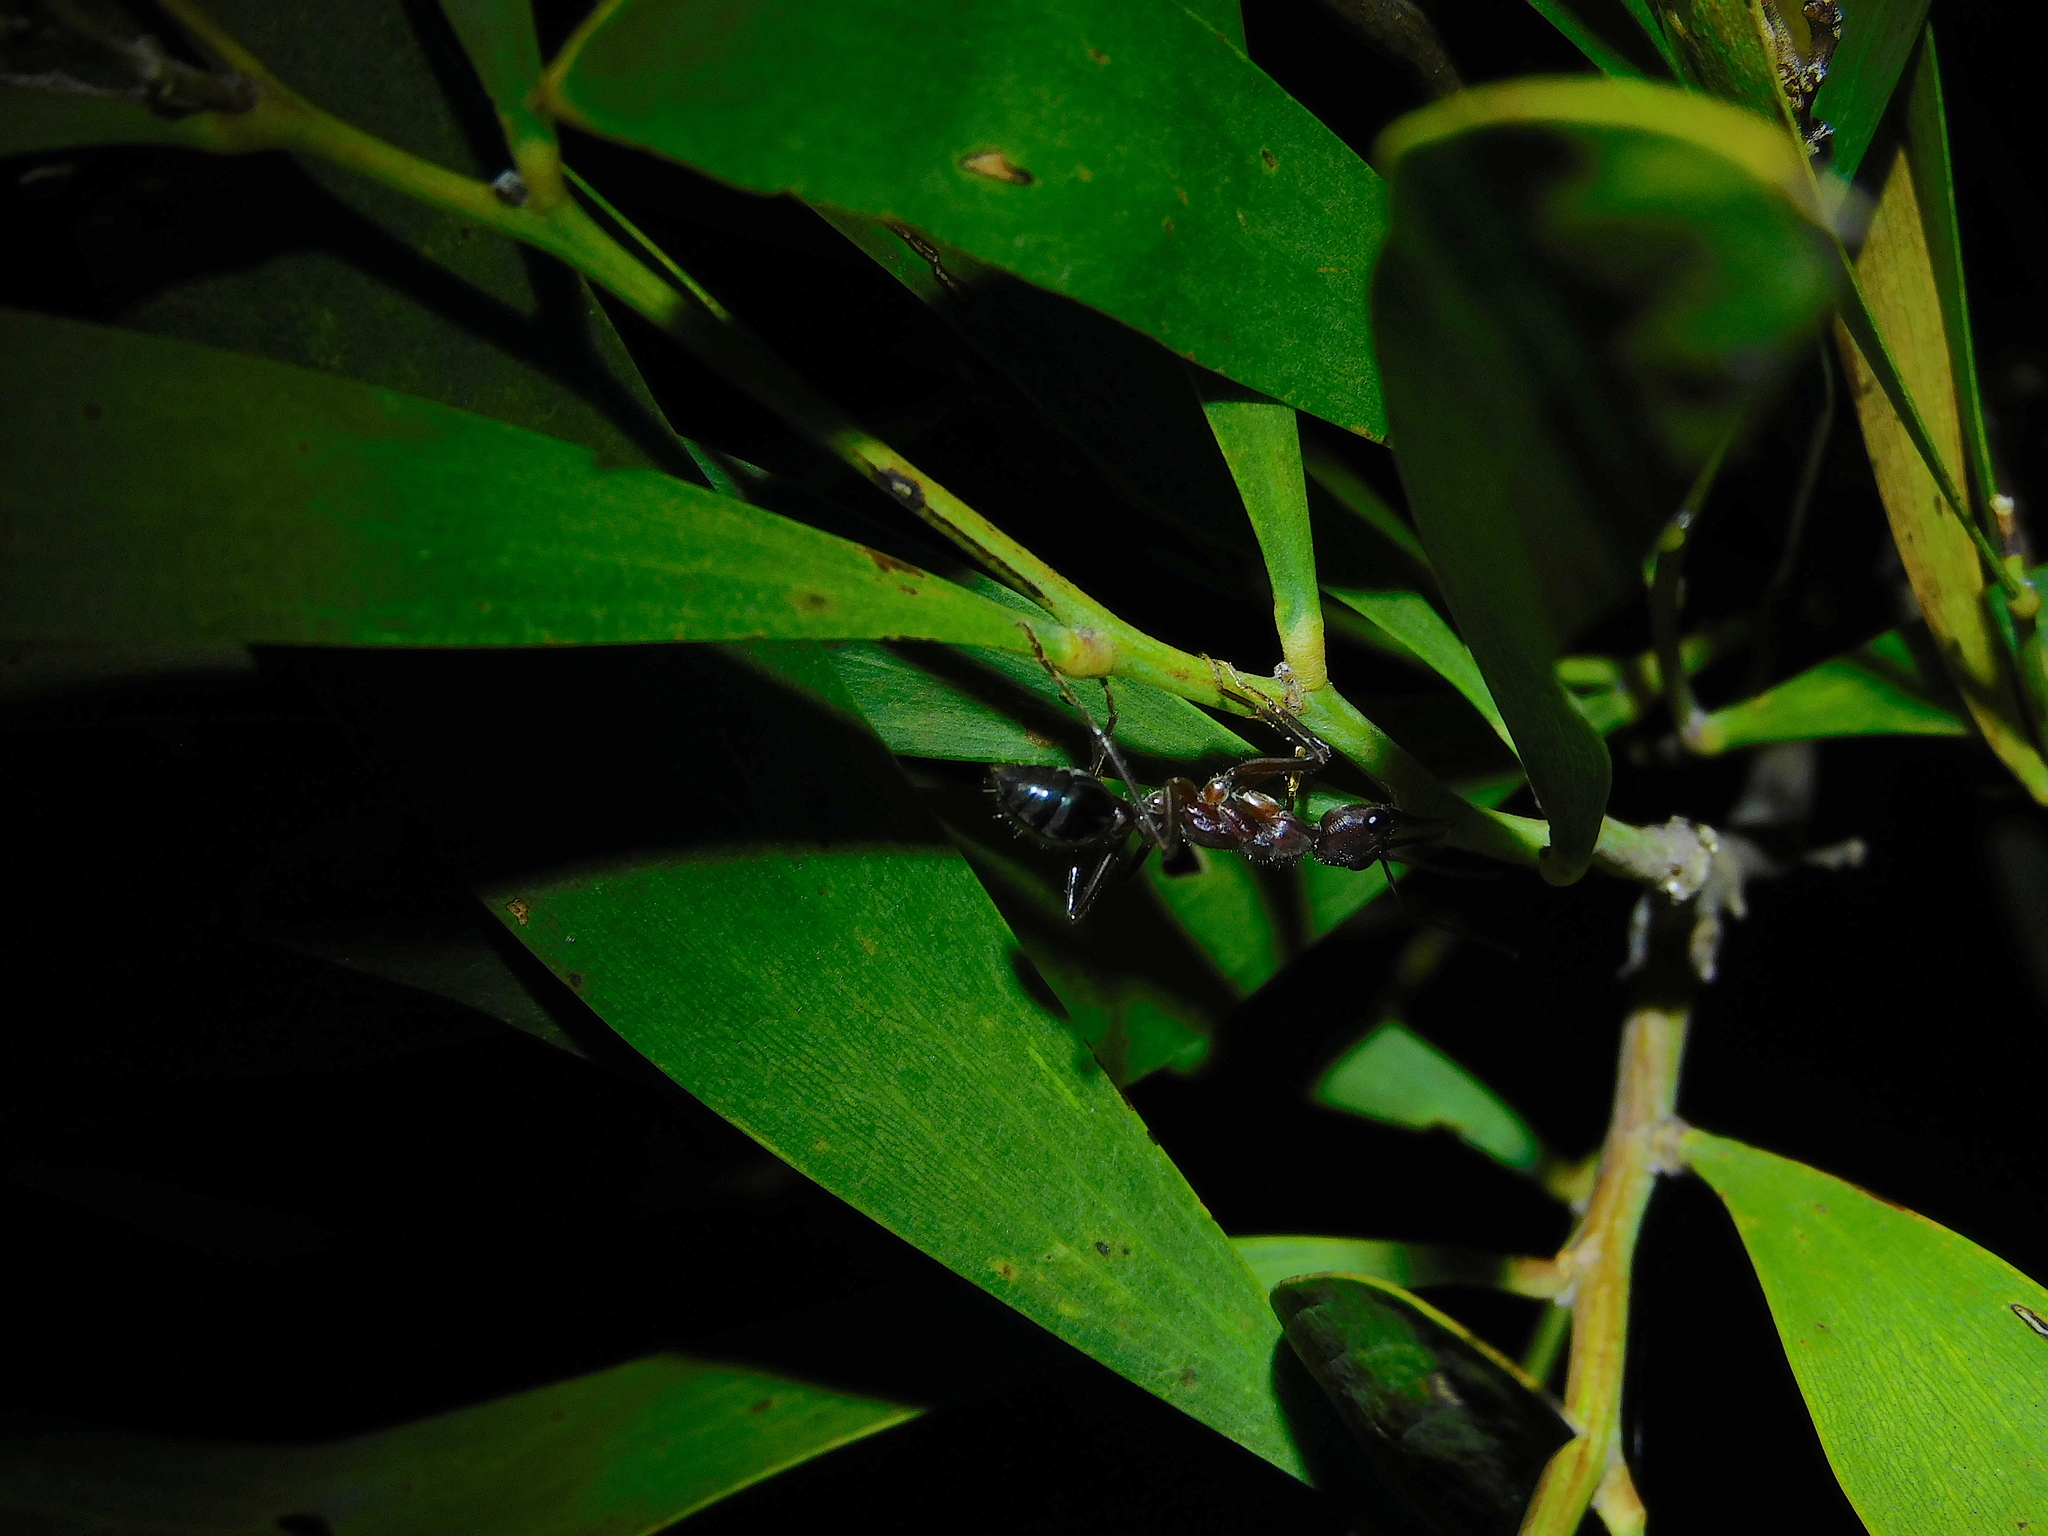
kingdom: Animalia
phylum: Arthropoda
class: Insecta
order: Hymenoptera
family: Formicidae
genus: Myrmecia
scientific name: Myrmecia forficata
